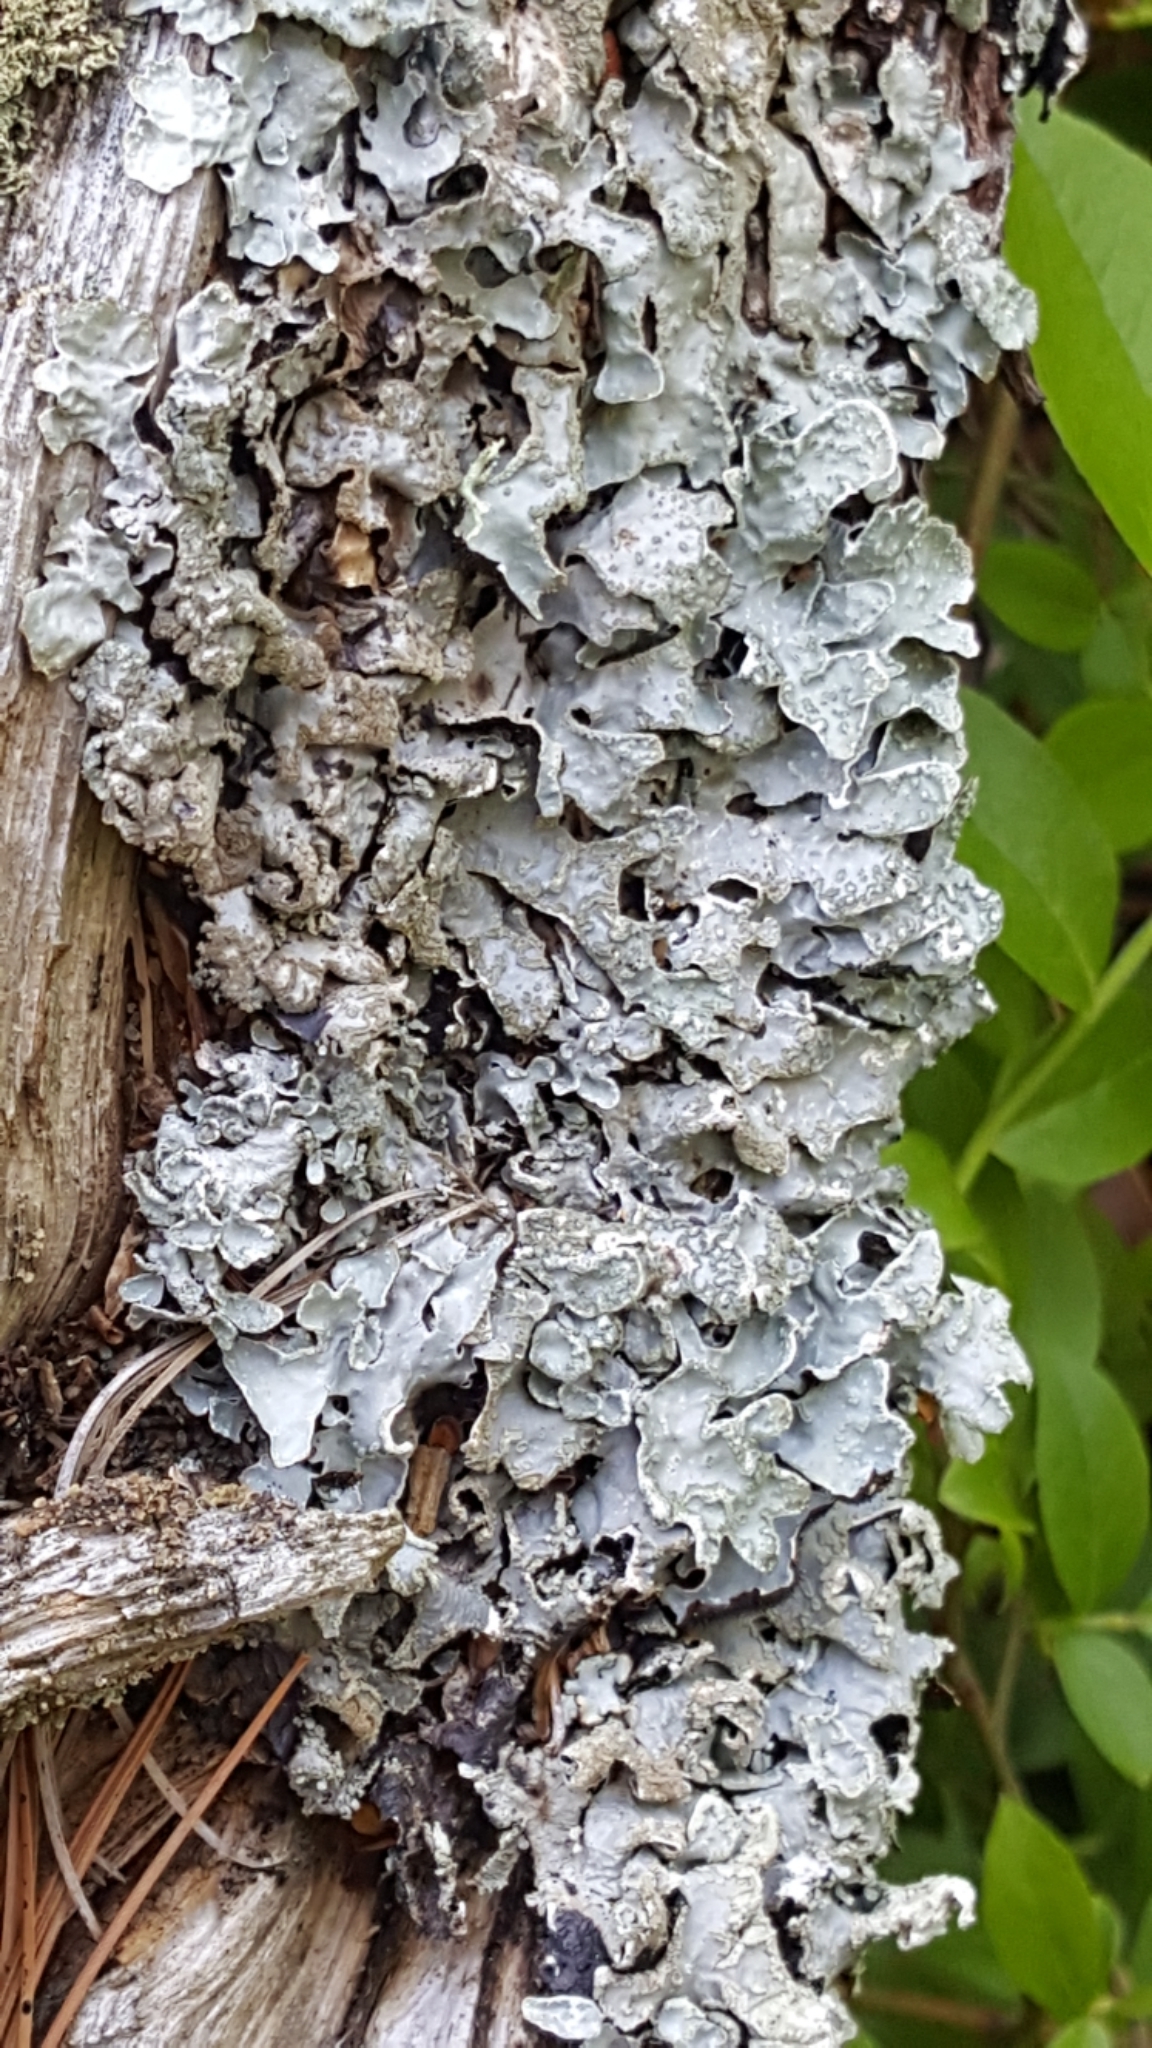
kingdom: Fungi
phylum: Ascomycota
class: Lecanoromycetes
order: Lecanorales
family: Parmeliaceae
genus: Parmelia
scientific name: Parmelia sulcata
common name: Netted shield lichen
